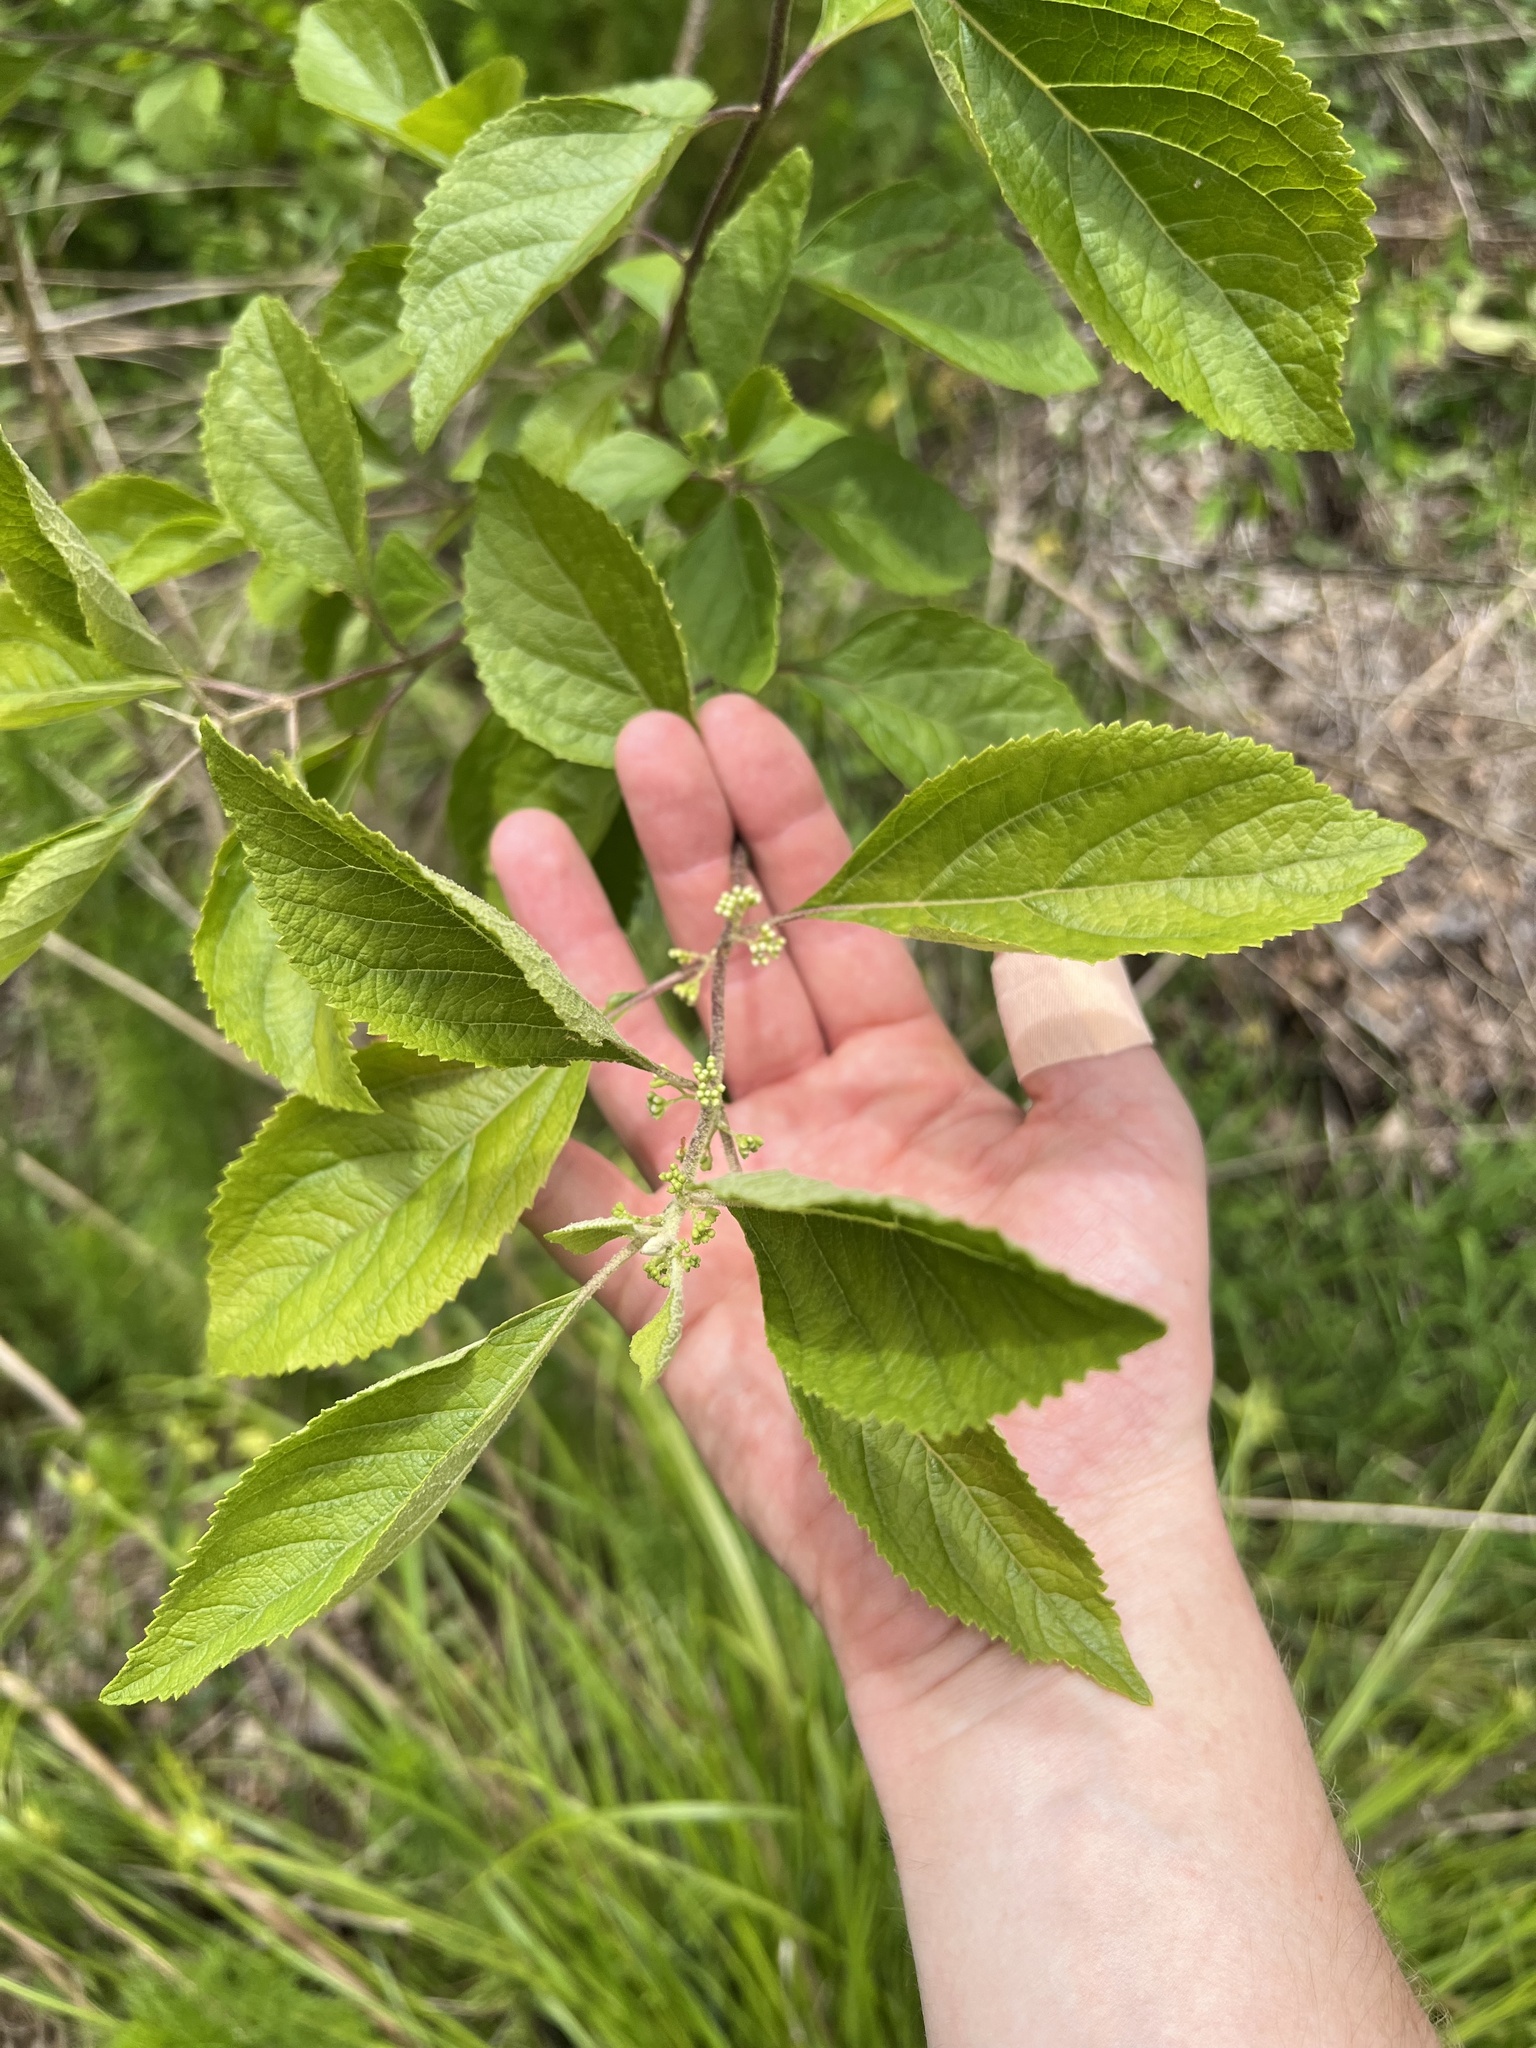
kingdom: Plantae
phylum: Tracheophyta
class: Magnoliopsida
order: Lamiales
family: Lamiaceae
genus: Callicarpa
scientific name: Callicarpa americana
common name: American beautyberry
